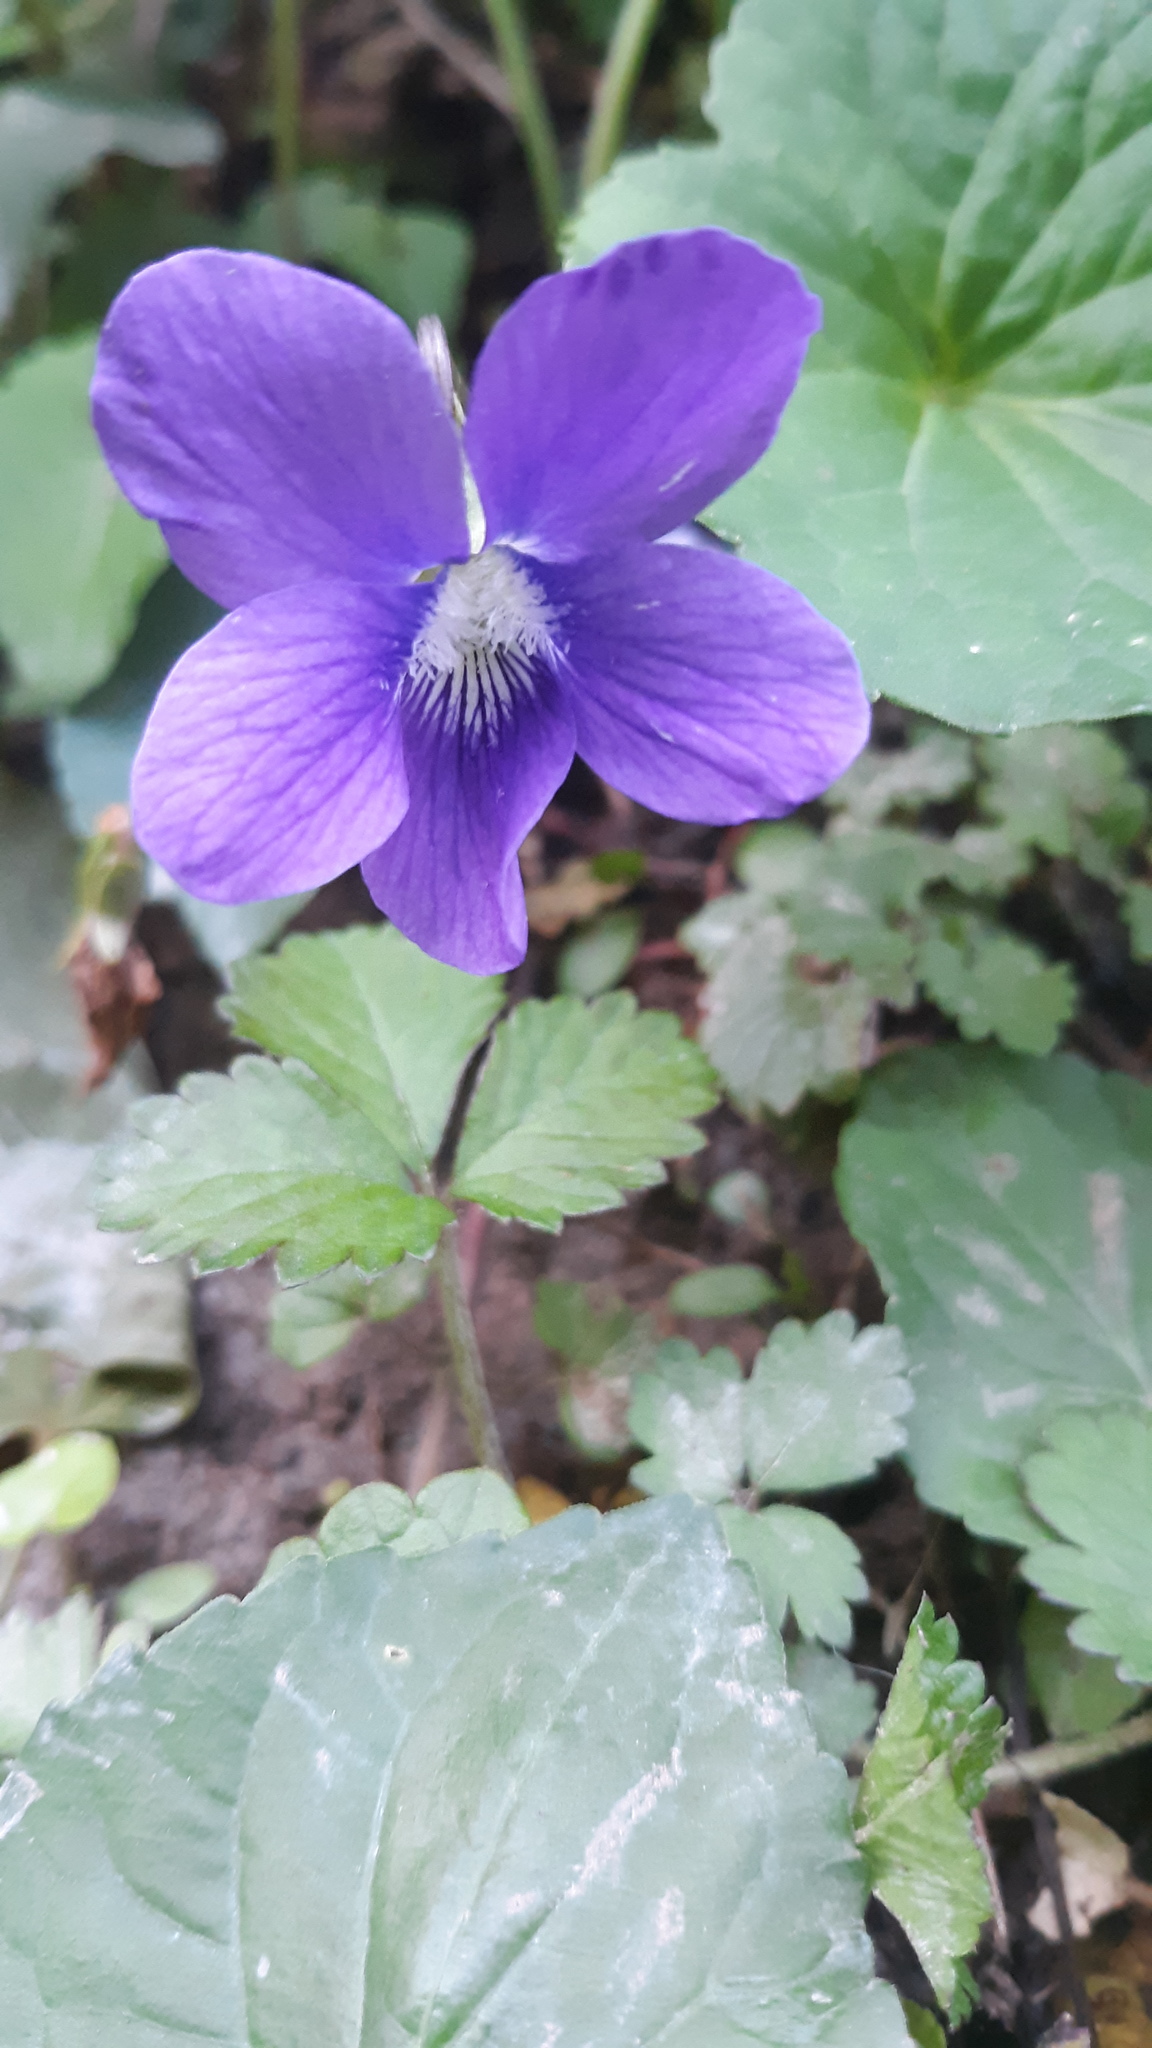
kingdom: Plantae
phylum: Tracheophyta
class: Magnoliopsida
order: Malpighiales
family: Violaceae
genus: Viola
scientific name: Viola sororia
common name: Dooryard violet
